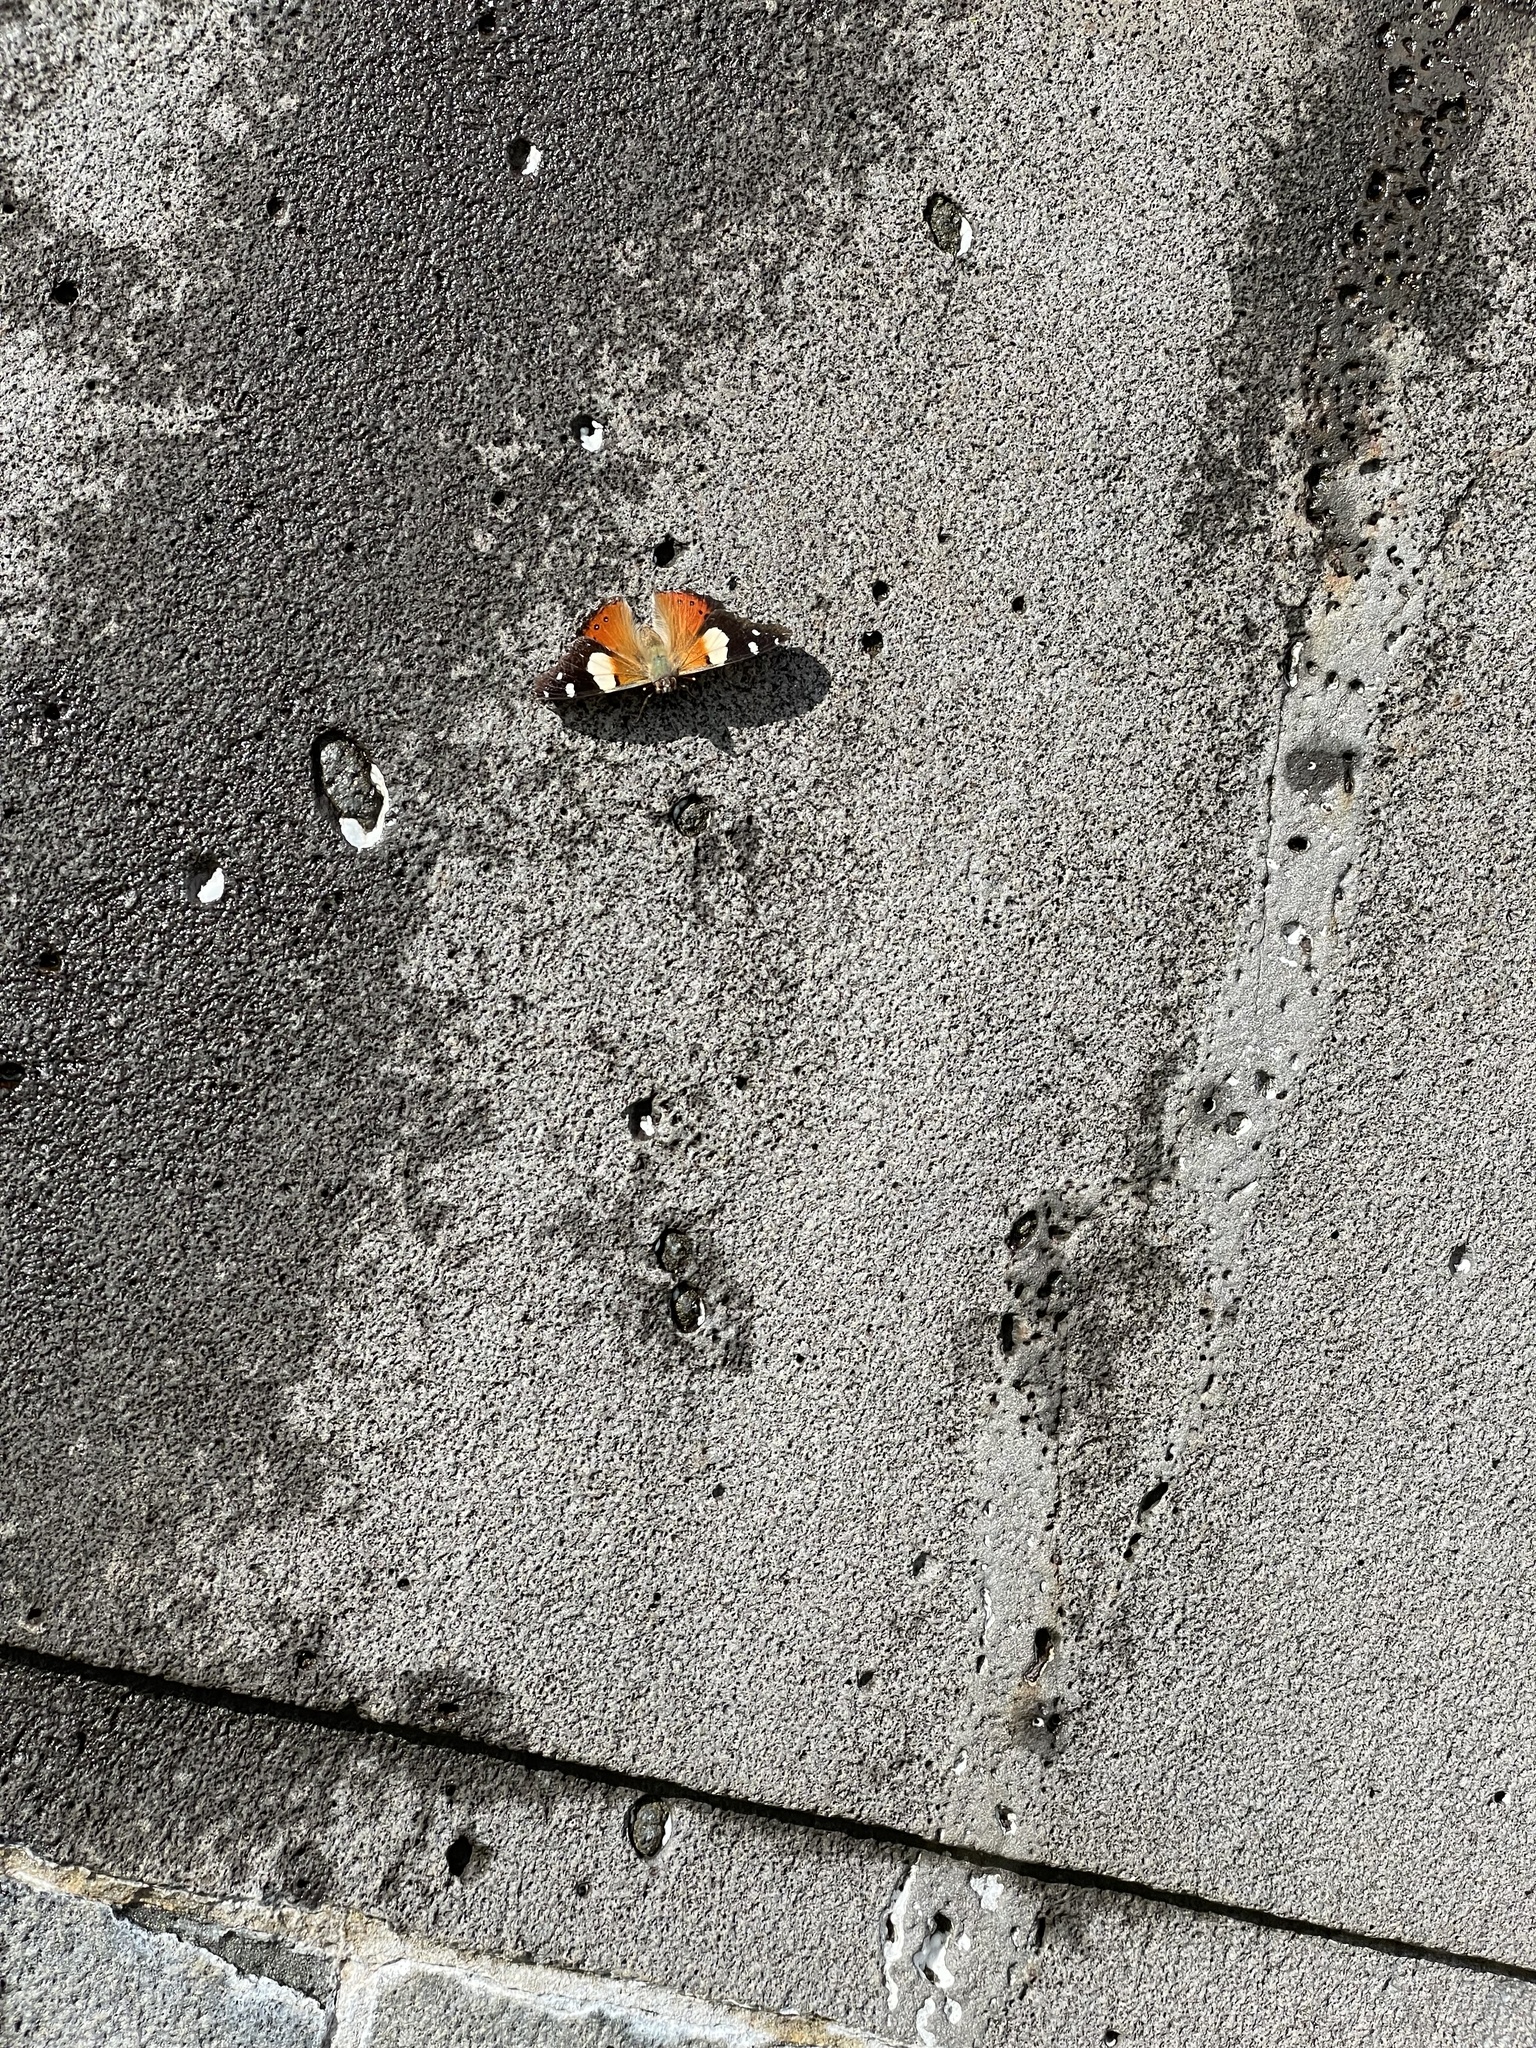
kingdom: Animalia
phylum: Arthropoda
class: Insecta
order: Lepidoptera
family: Nymphalidae
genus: Vanessa
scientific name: Vanessa itea
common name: Yellow admiral
